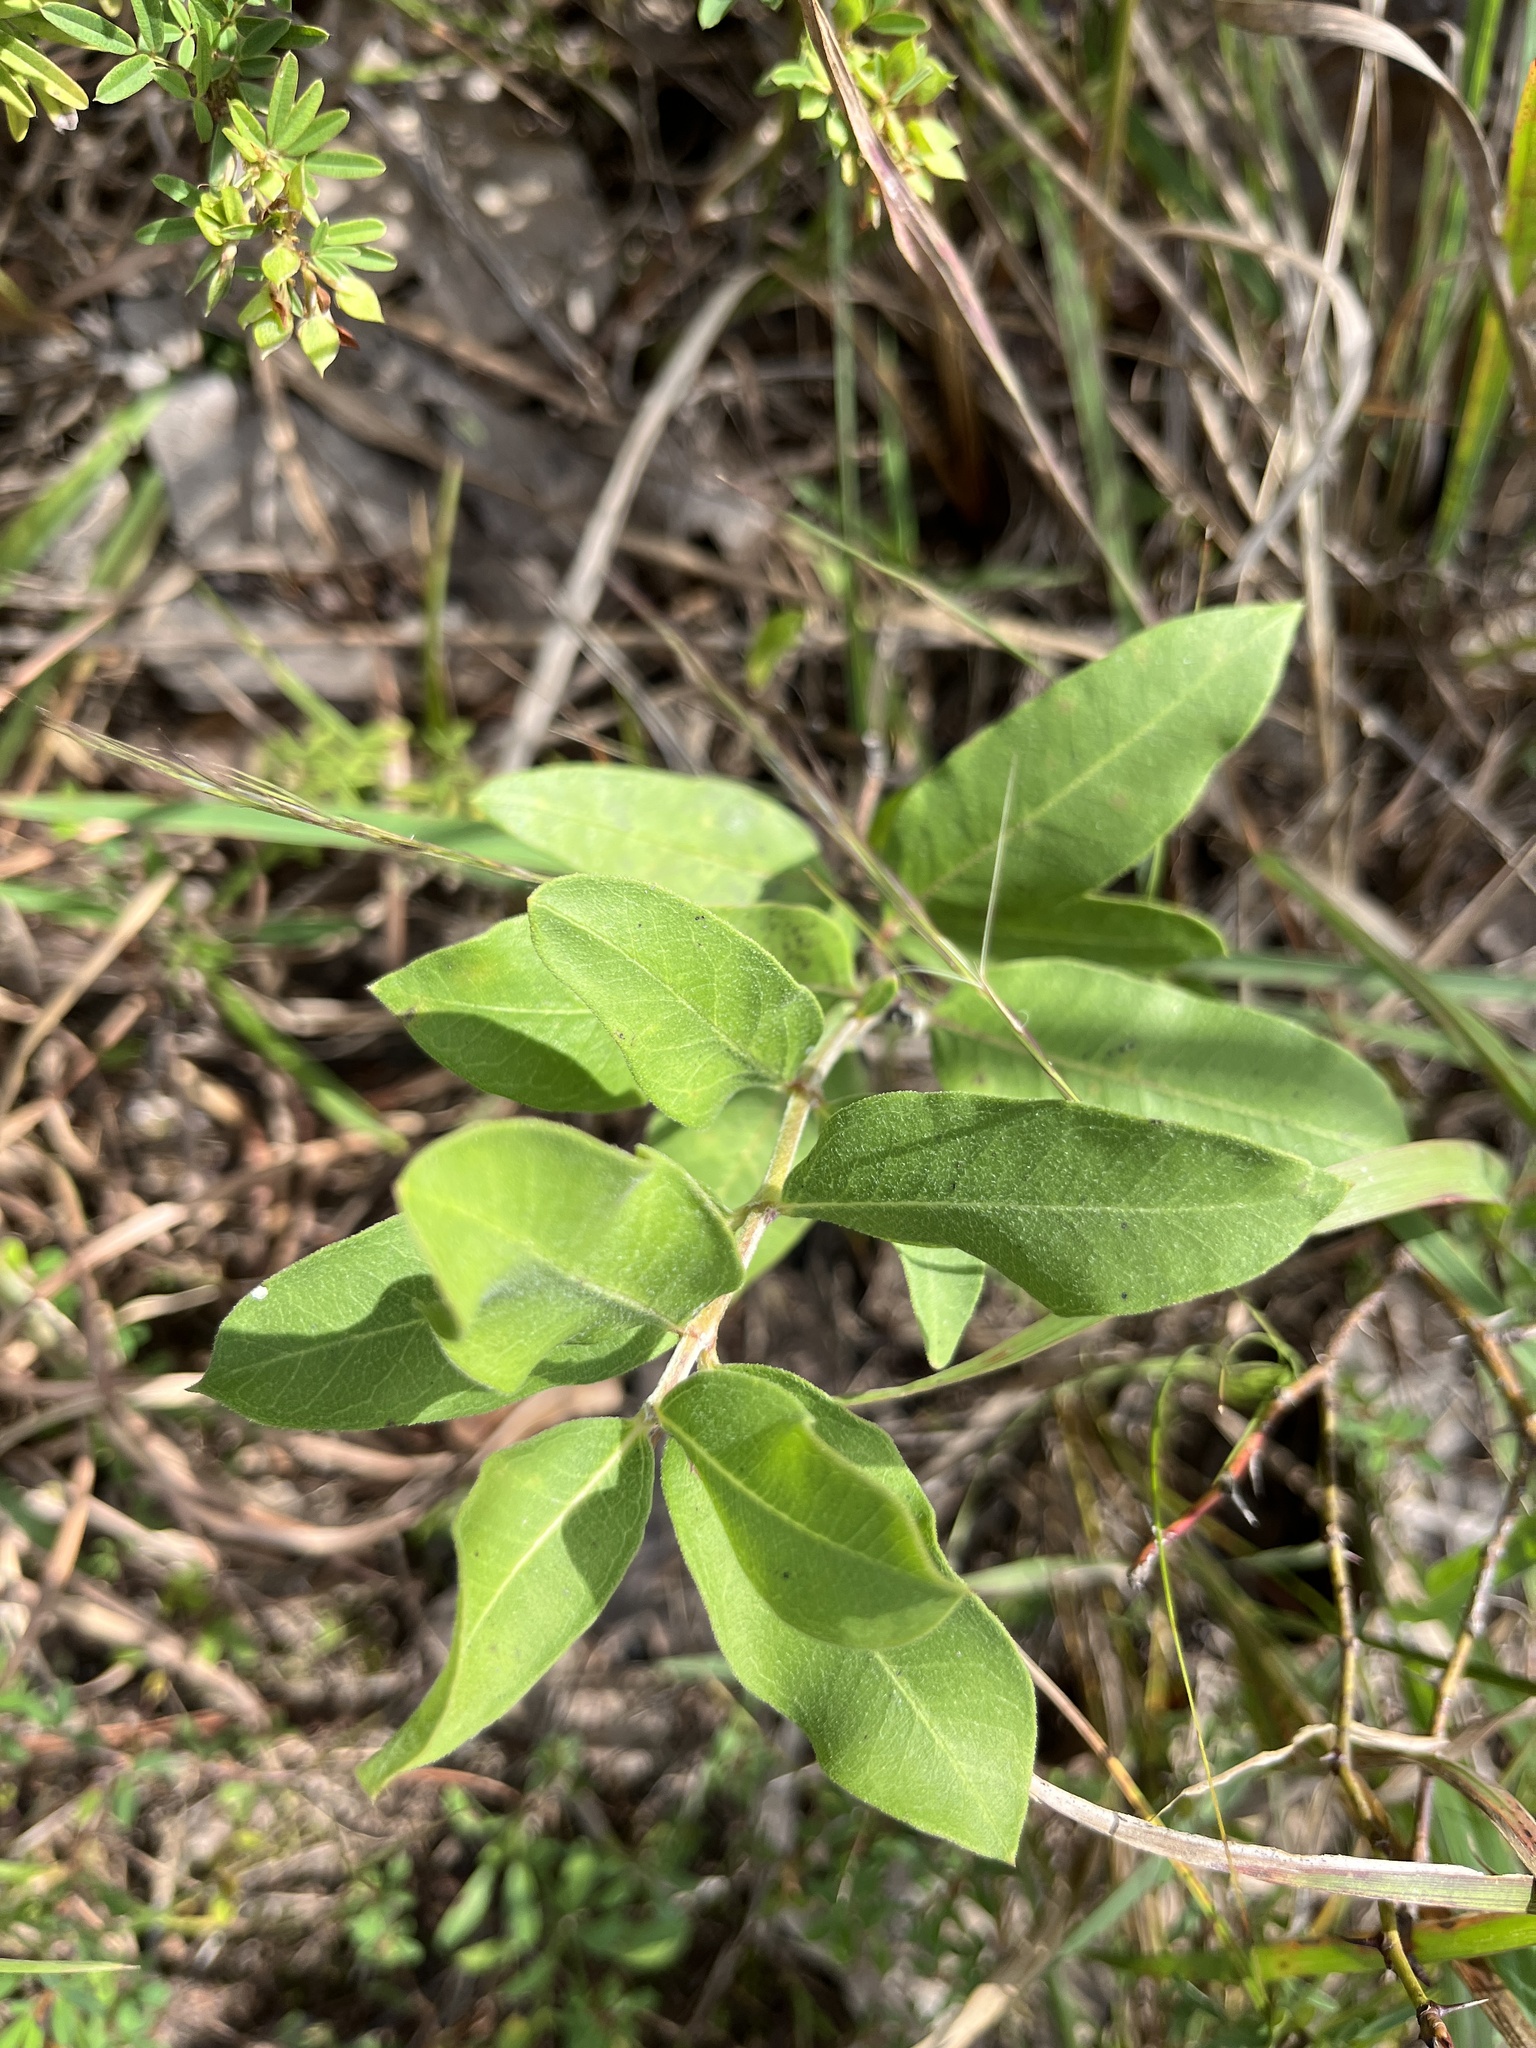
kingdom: Plantae
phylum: Tracheophyta
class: Magnoliopsida
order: Gentianales
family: Apocynaceae
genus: Asclepias
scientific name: Asclepias viridiflora
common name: Green comet milkweed
